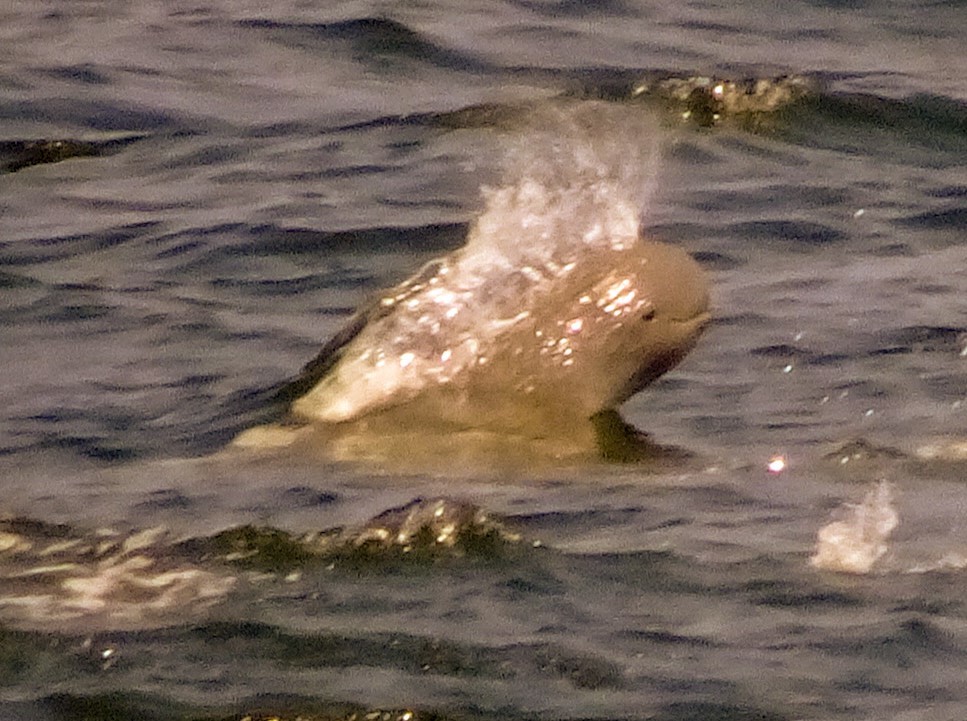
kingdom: Animalia
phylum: Chordata
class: Mammalia
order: Cetacea
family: Delphinidae
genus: Orcaella
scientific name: Orcaella brevirostris
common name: Irrawaddy dolphin
